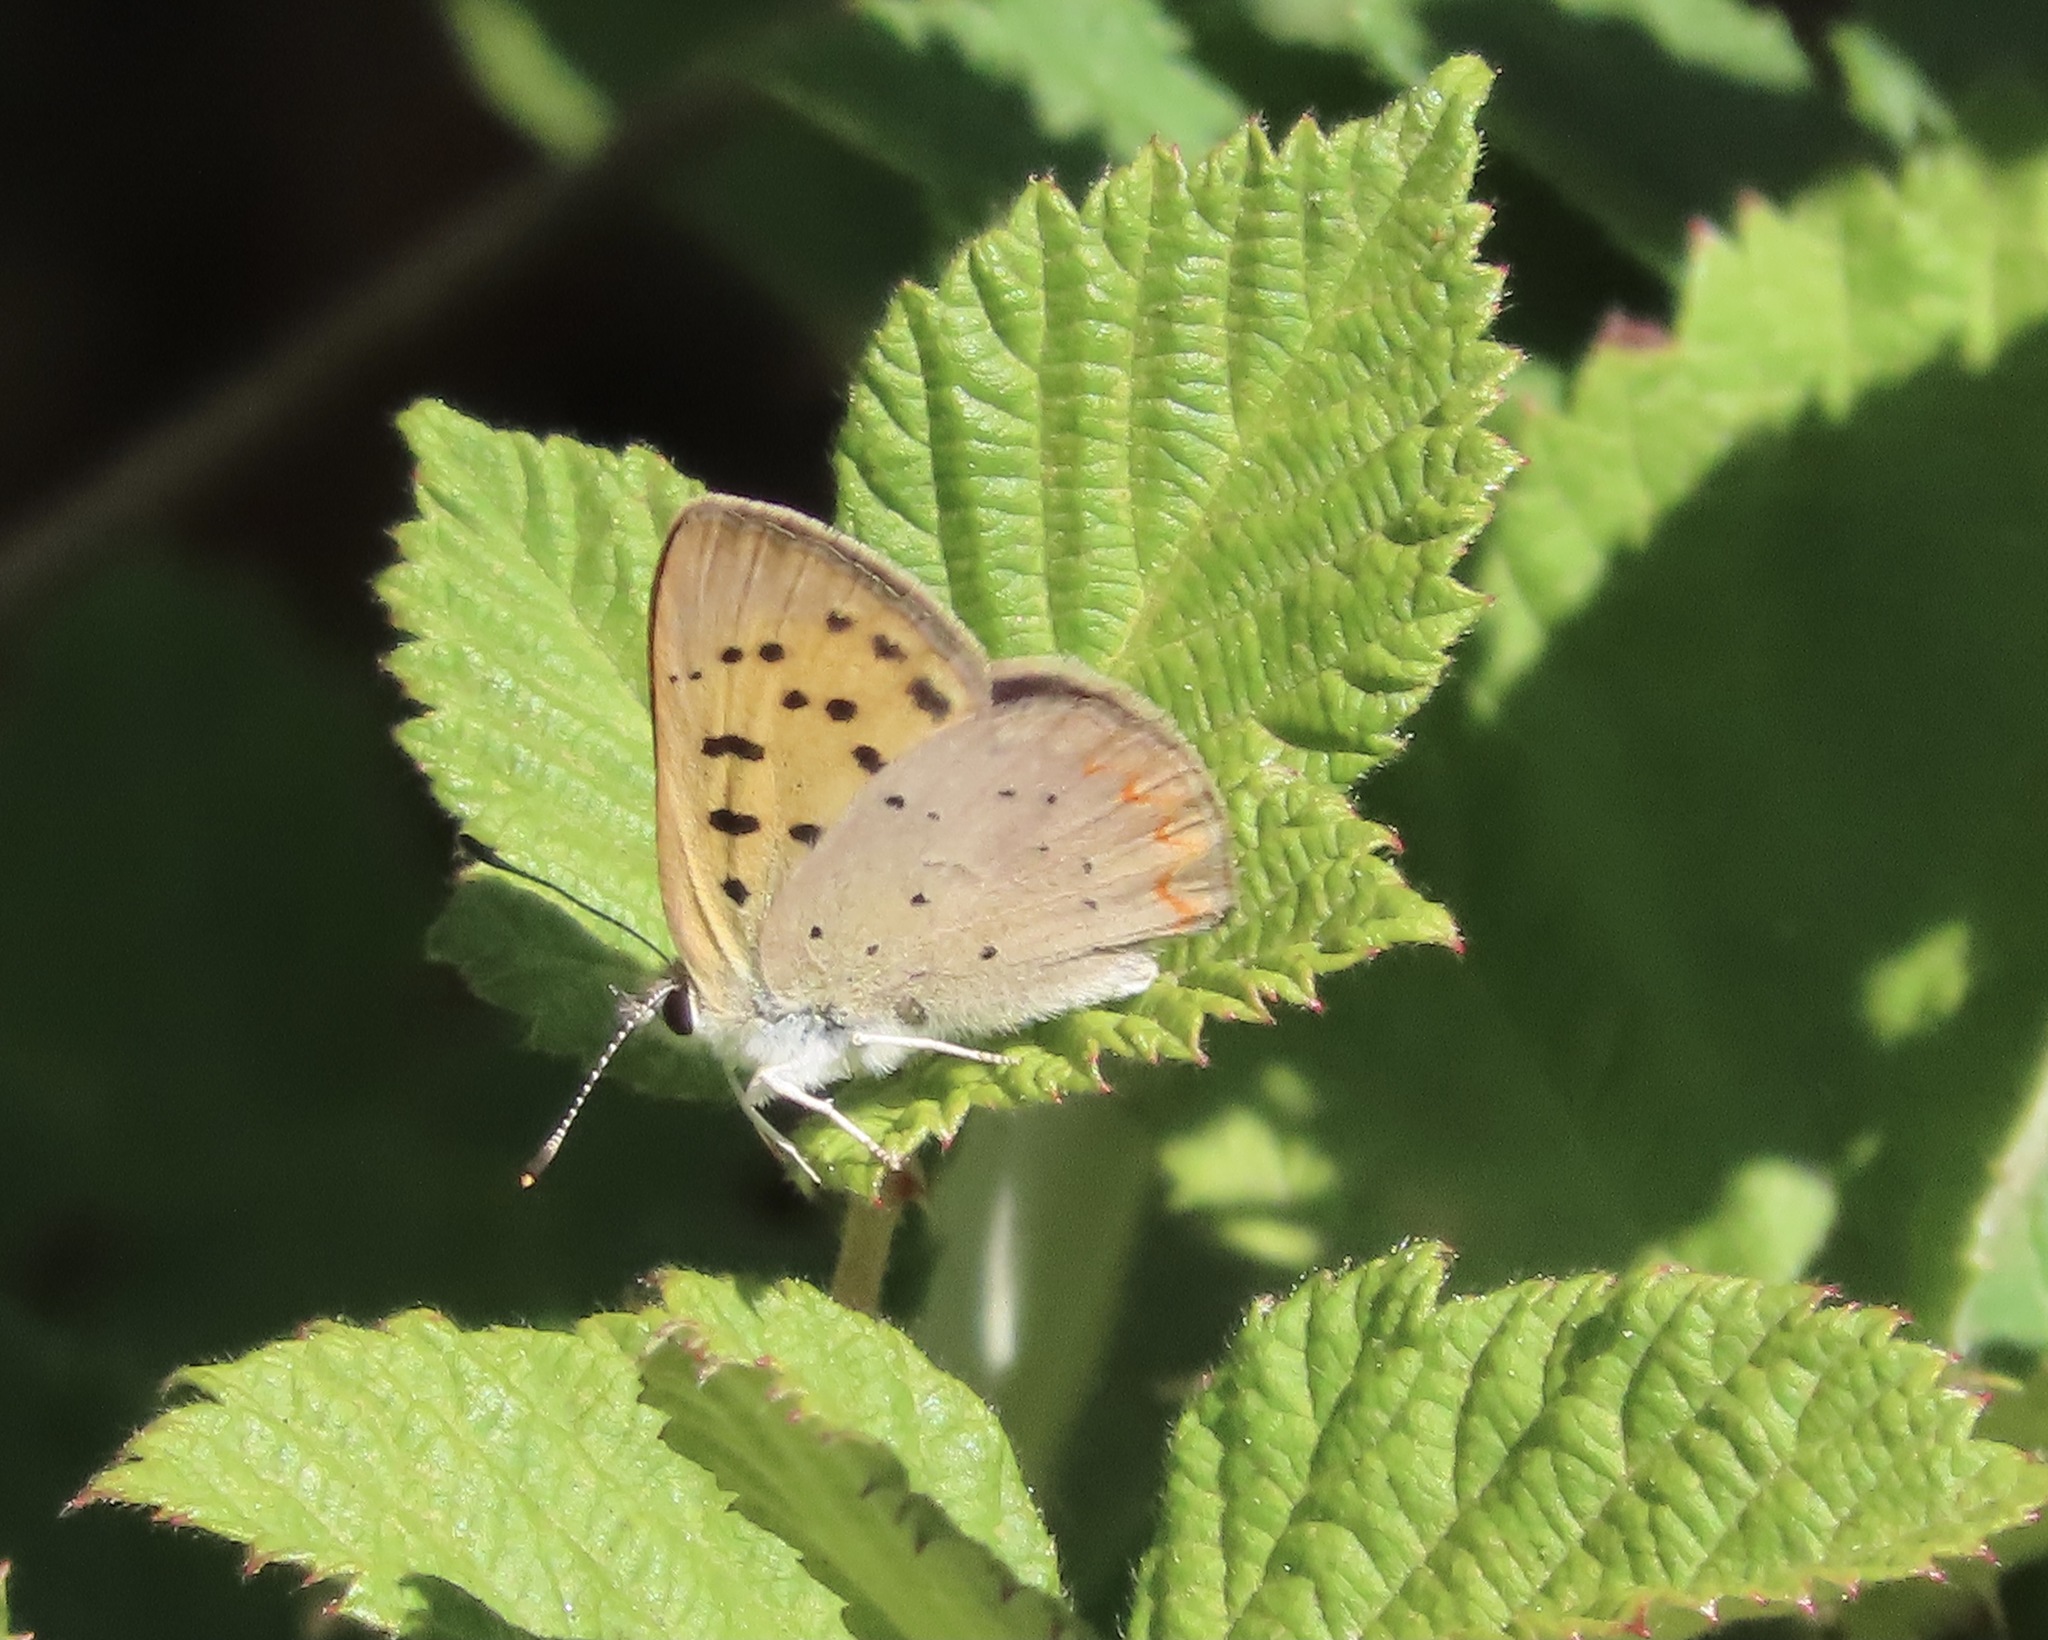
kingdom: Animalia
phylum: Arthropoda
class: Insecta
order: Lepidoptera
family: Lycaenidae
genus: Tharsalea
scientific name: Tharsalea helloides
